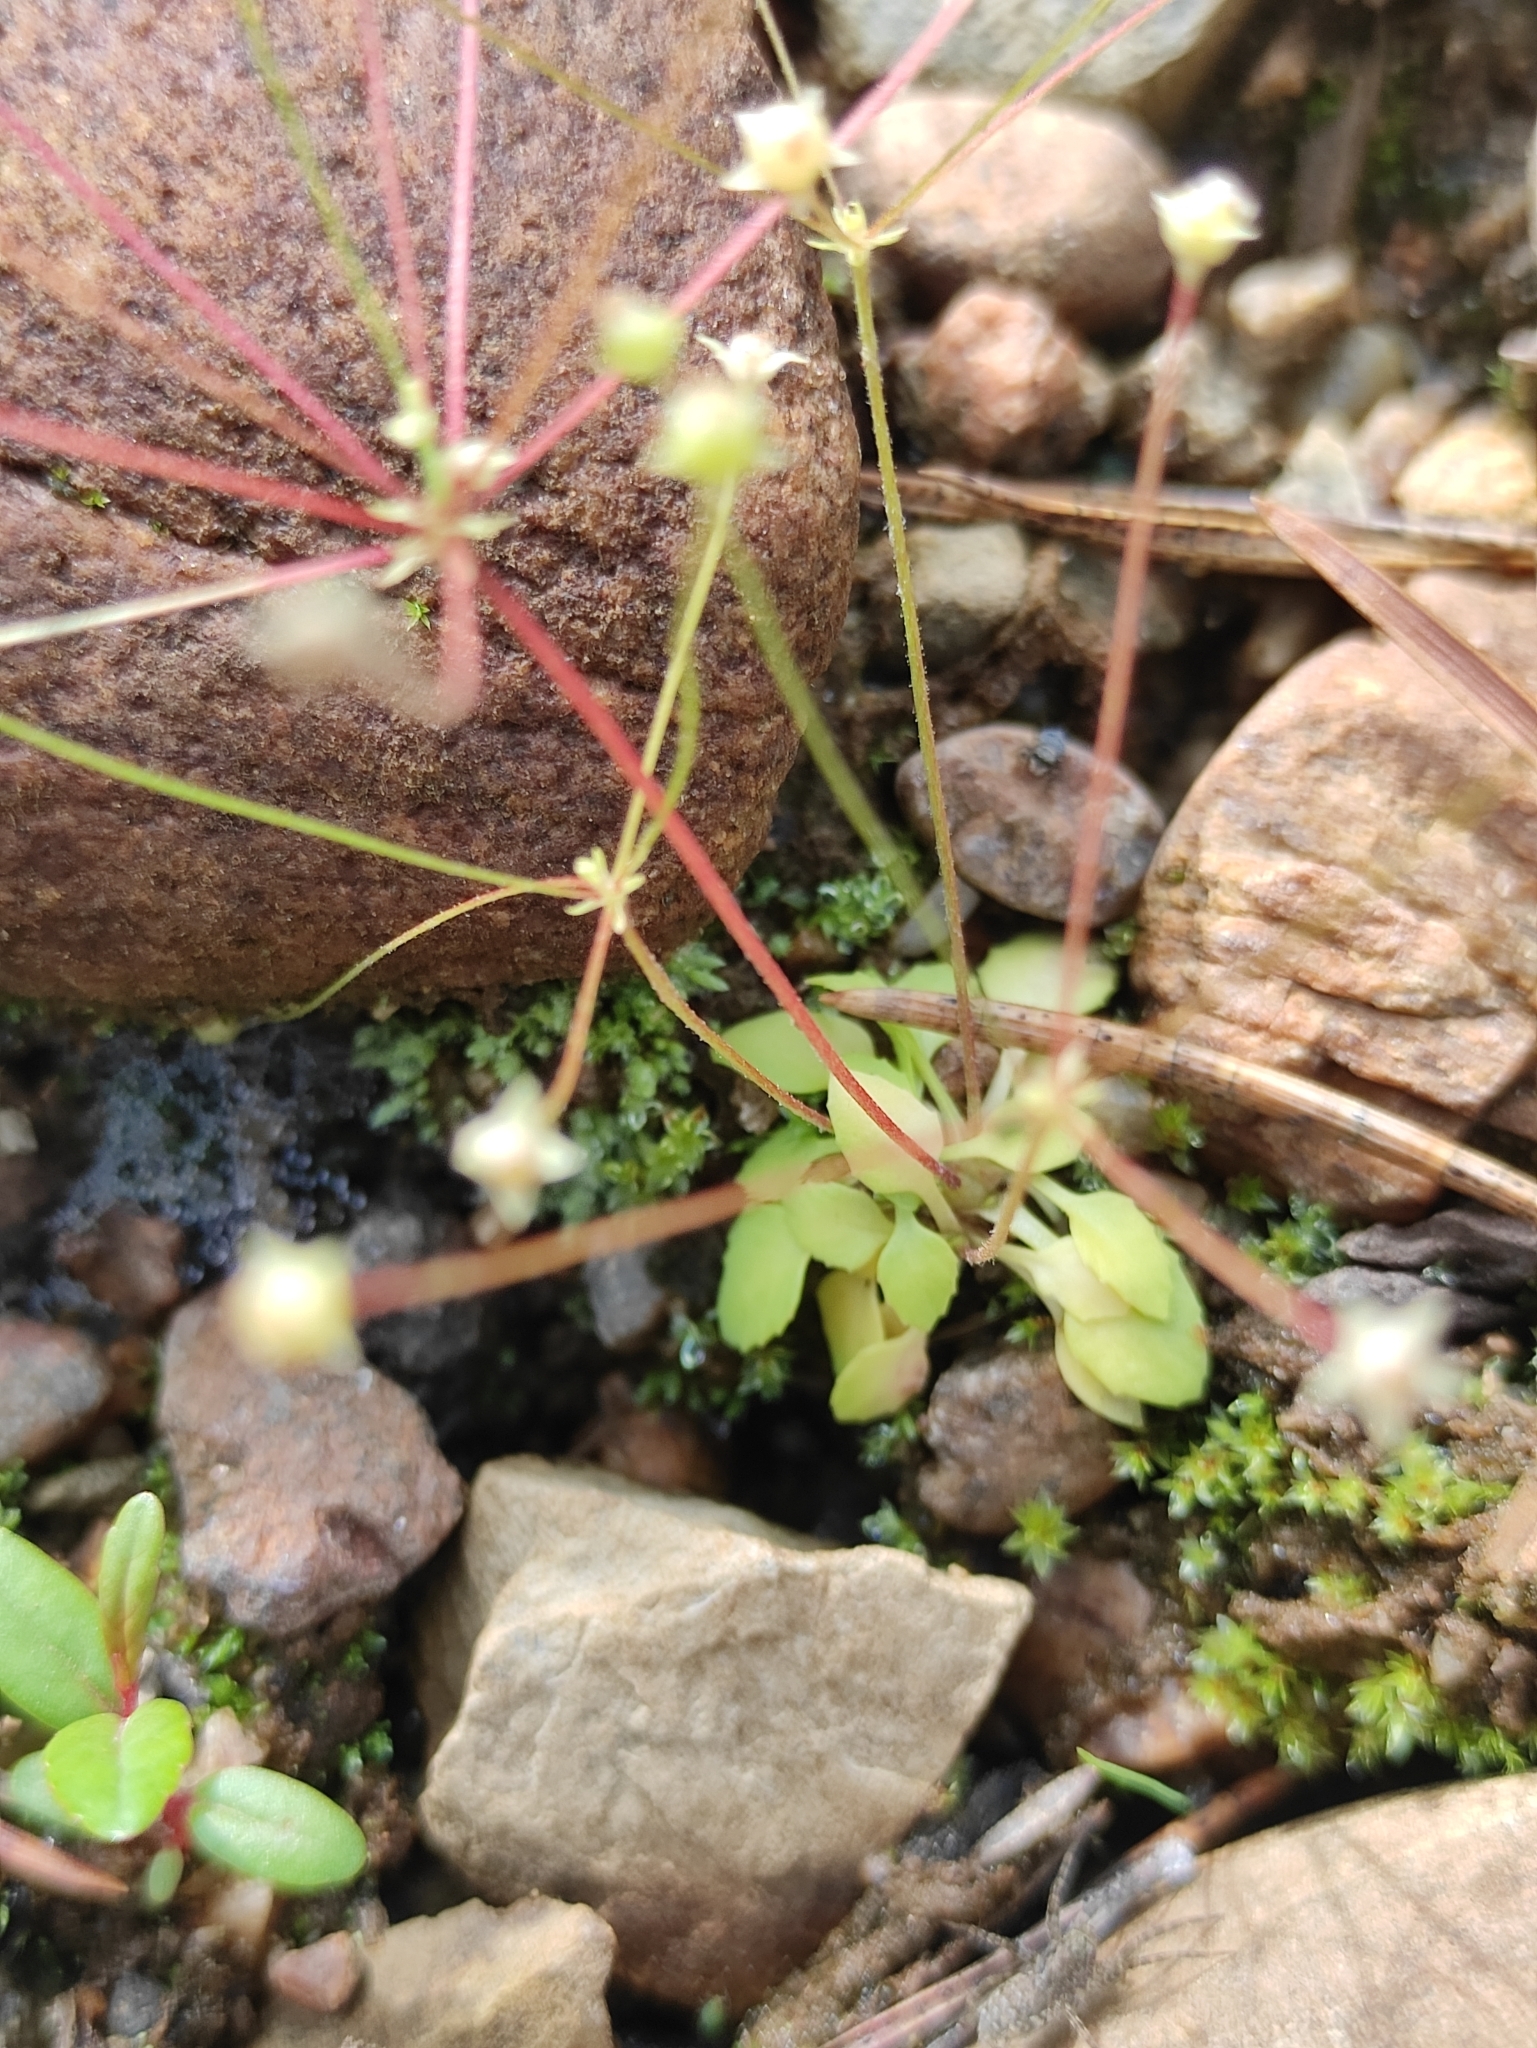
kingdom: Plantae
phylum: Tracheophyta
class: Magnoliopsida
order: Ericales
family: Primulaceae
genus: Androsace
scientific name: Androsace filiformis
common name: Filiform rock jasmine
